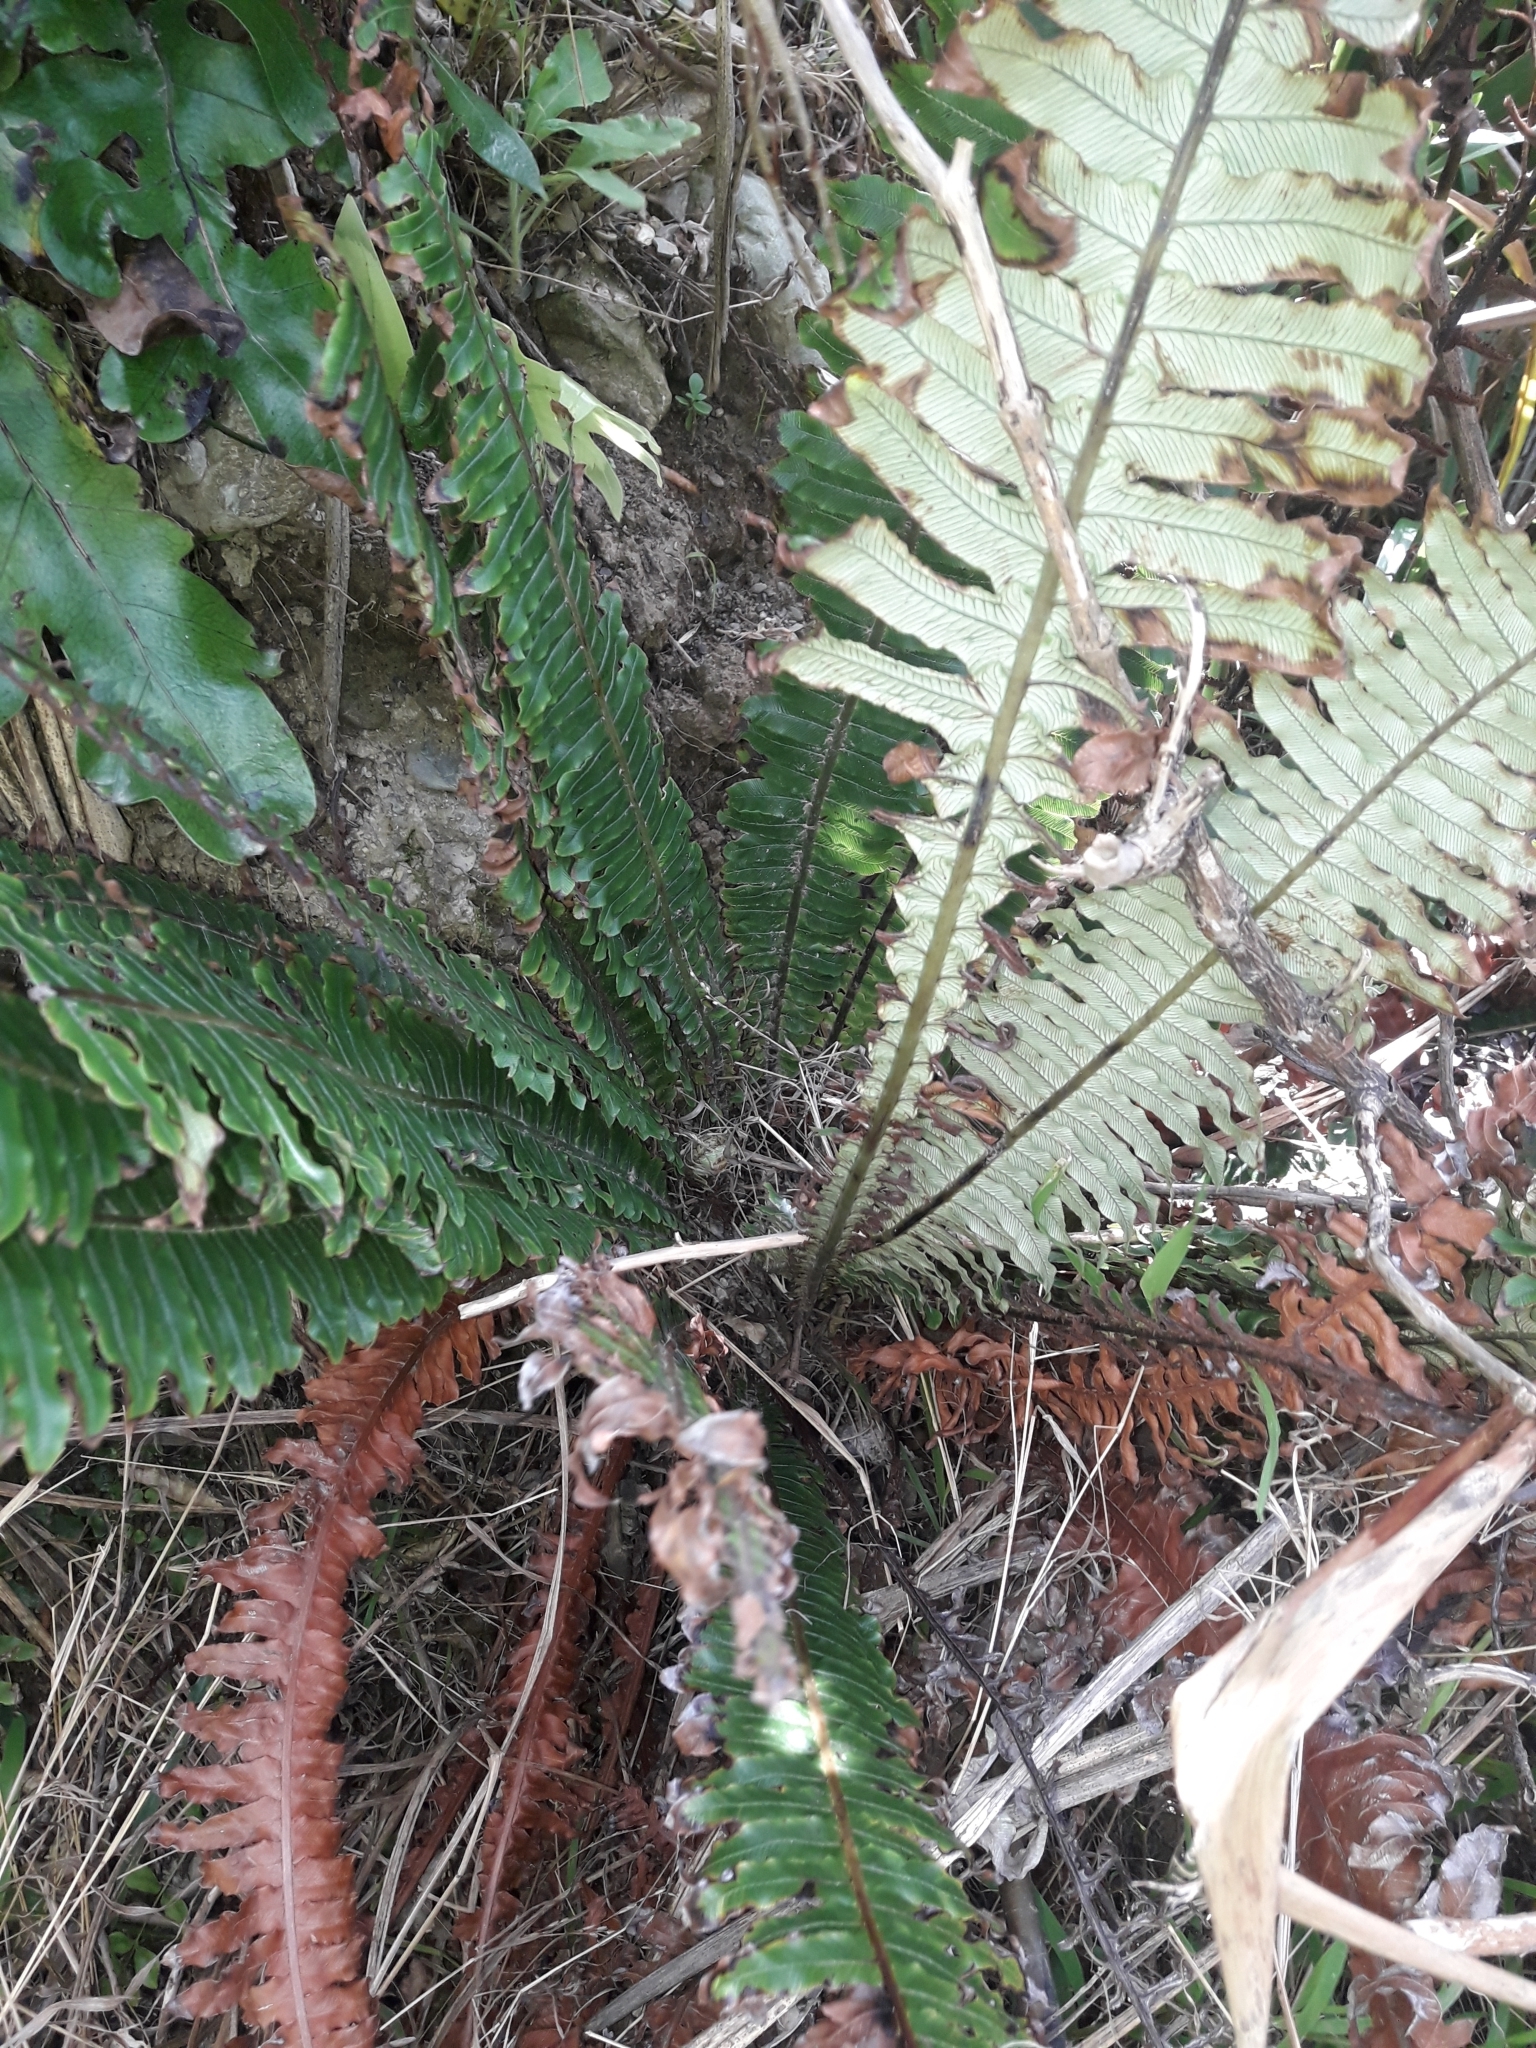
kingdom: Plantae
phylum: Tracheophyta
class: Polypodiopsida
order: Polypodiales
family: Blechnaceae
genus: Lomaria
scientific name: Lomaria discolor
